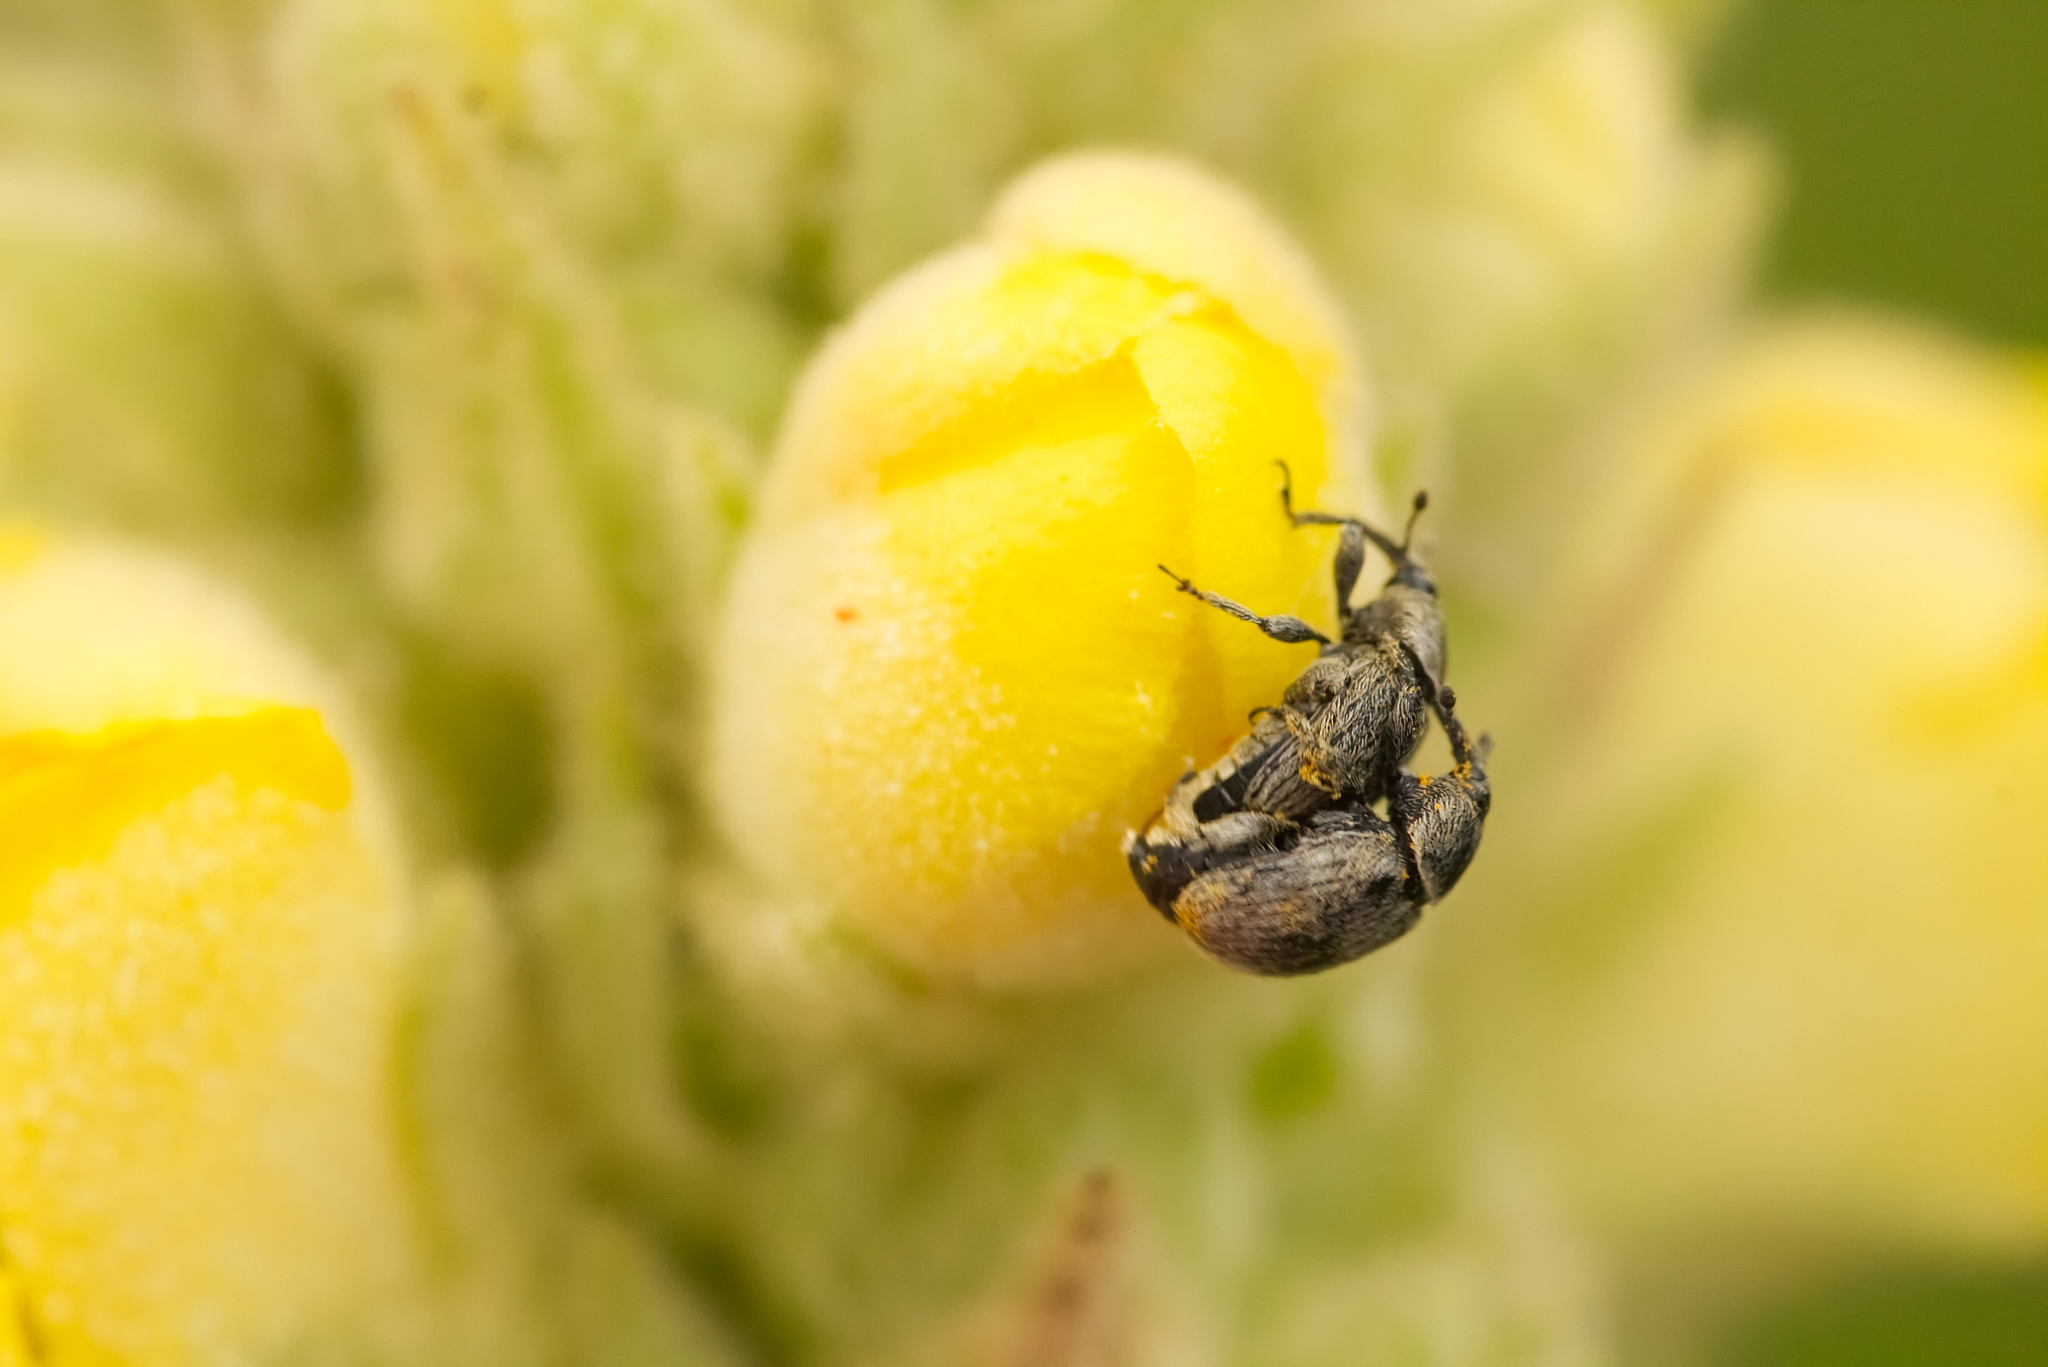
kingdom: Animalia
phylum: Arthropoda
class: Insecta
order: Coleoptera
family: Curculionidae
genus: Rhinusa
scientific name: Rhinusa tetra
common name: Weevil
